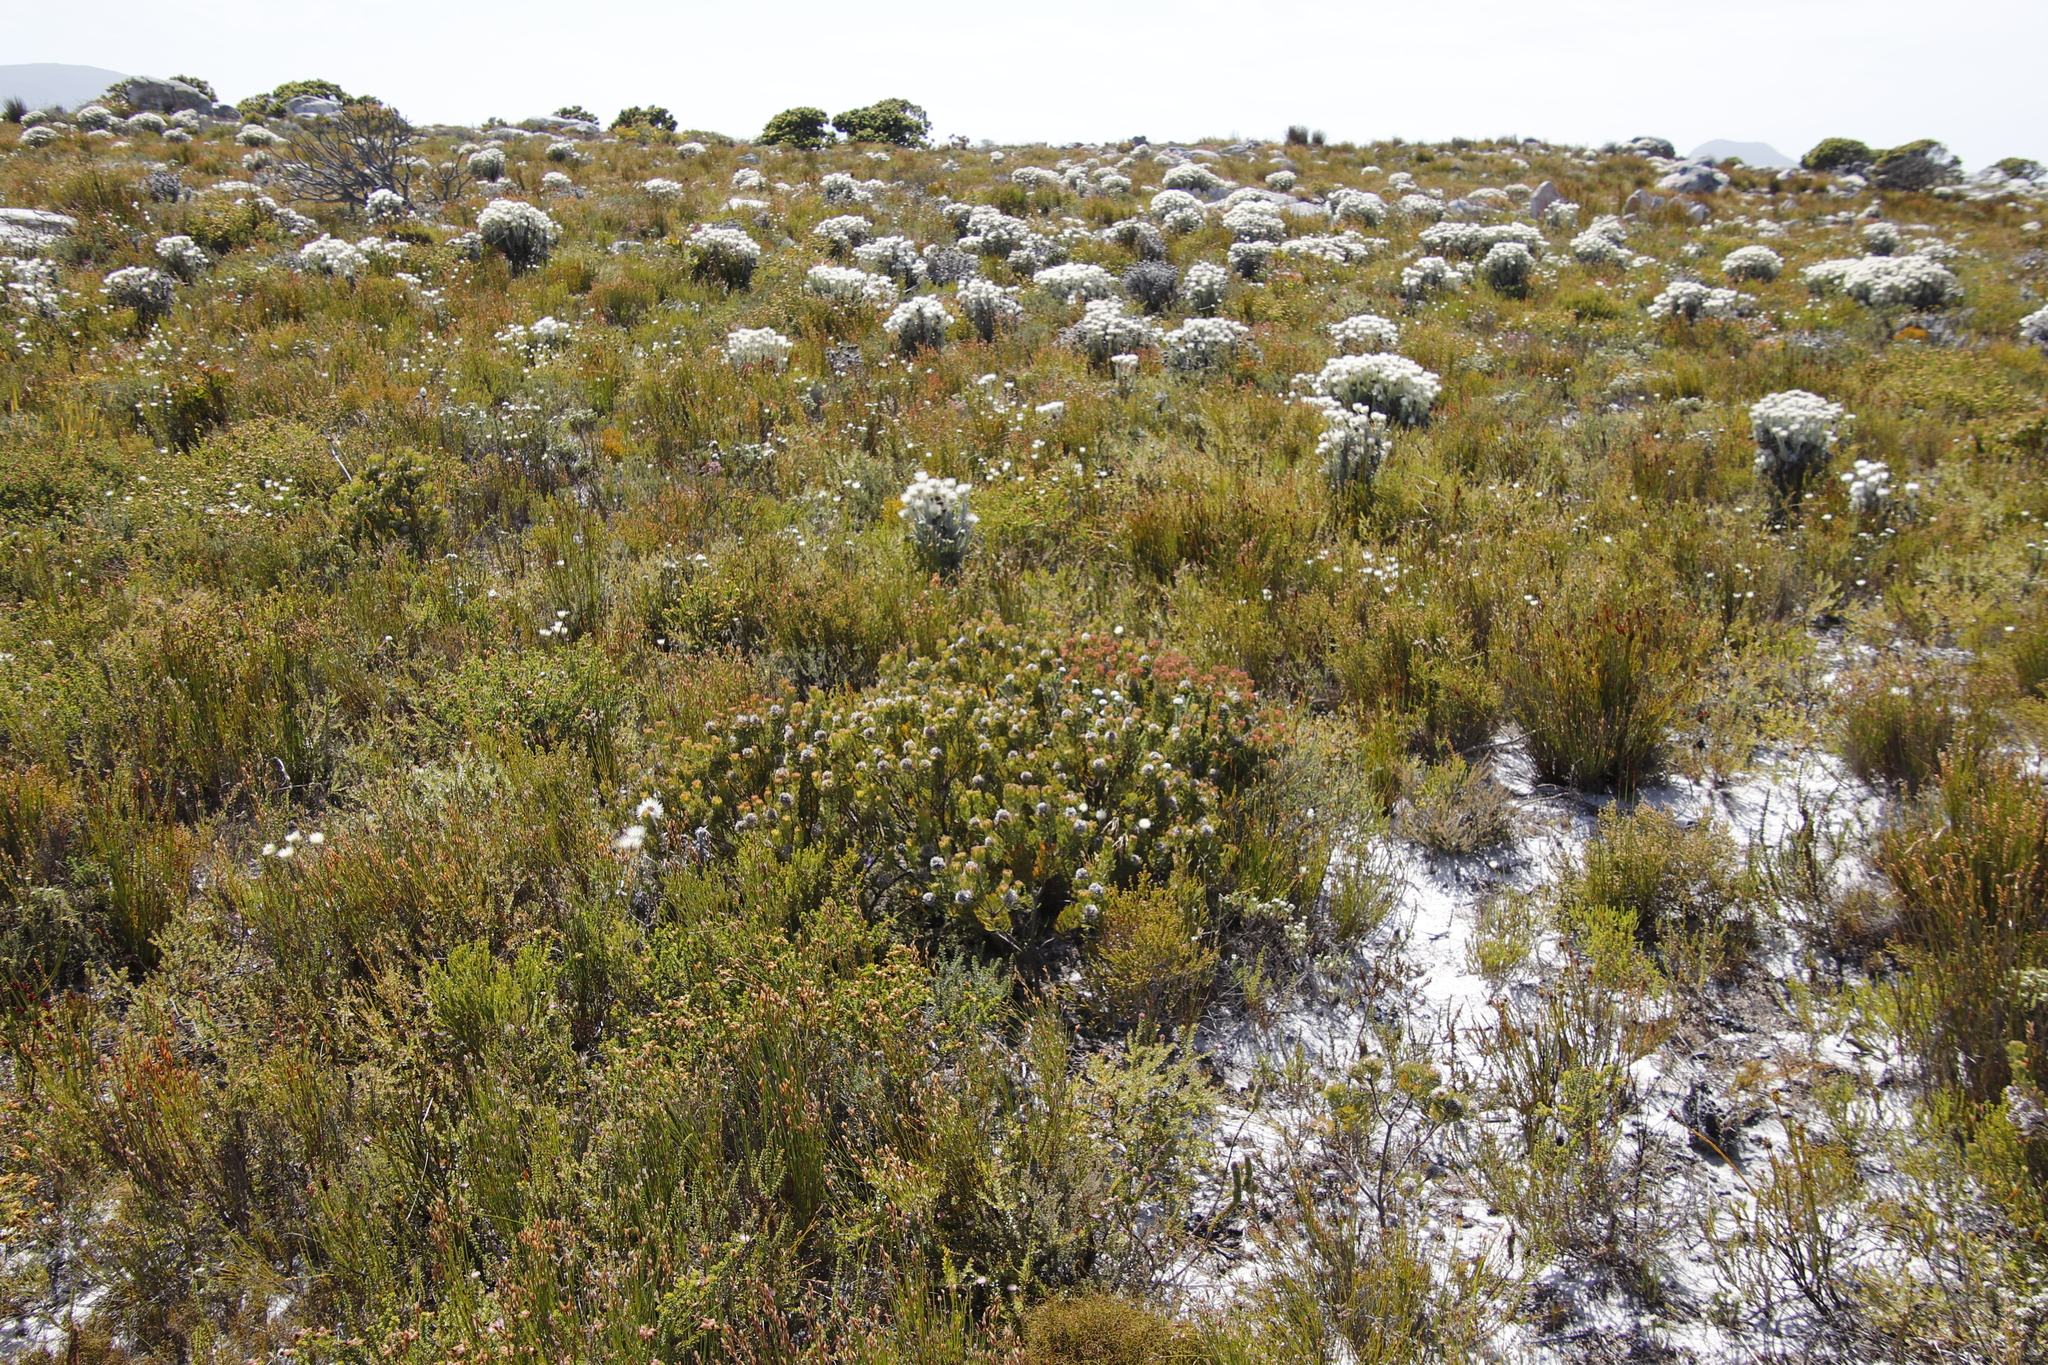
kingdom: Plantae
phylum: Tracheophyta
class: Magnoliopsida
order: Proteales
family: Proteaceae
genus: Serruria
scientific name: Serruria villosa
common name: Golden spiderhead
